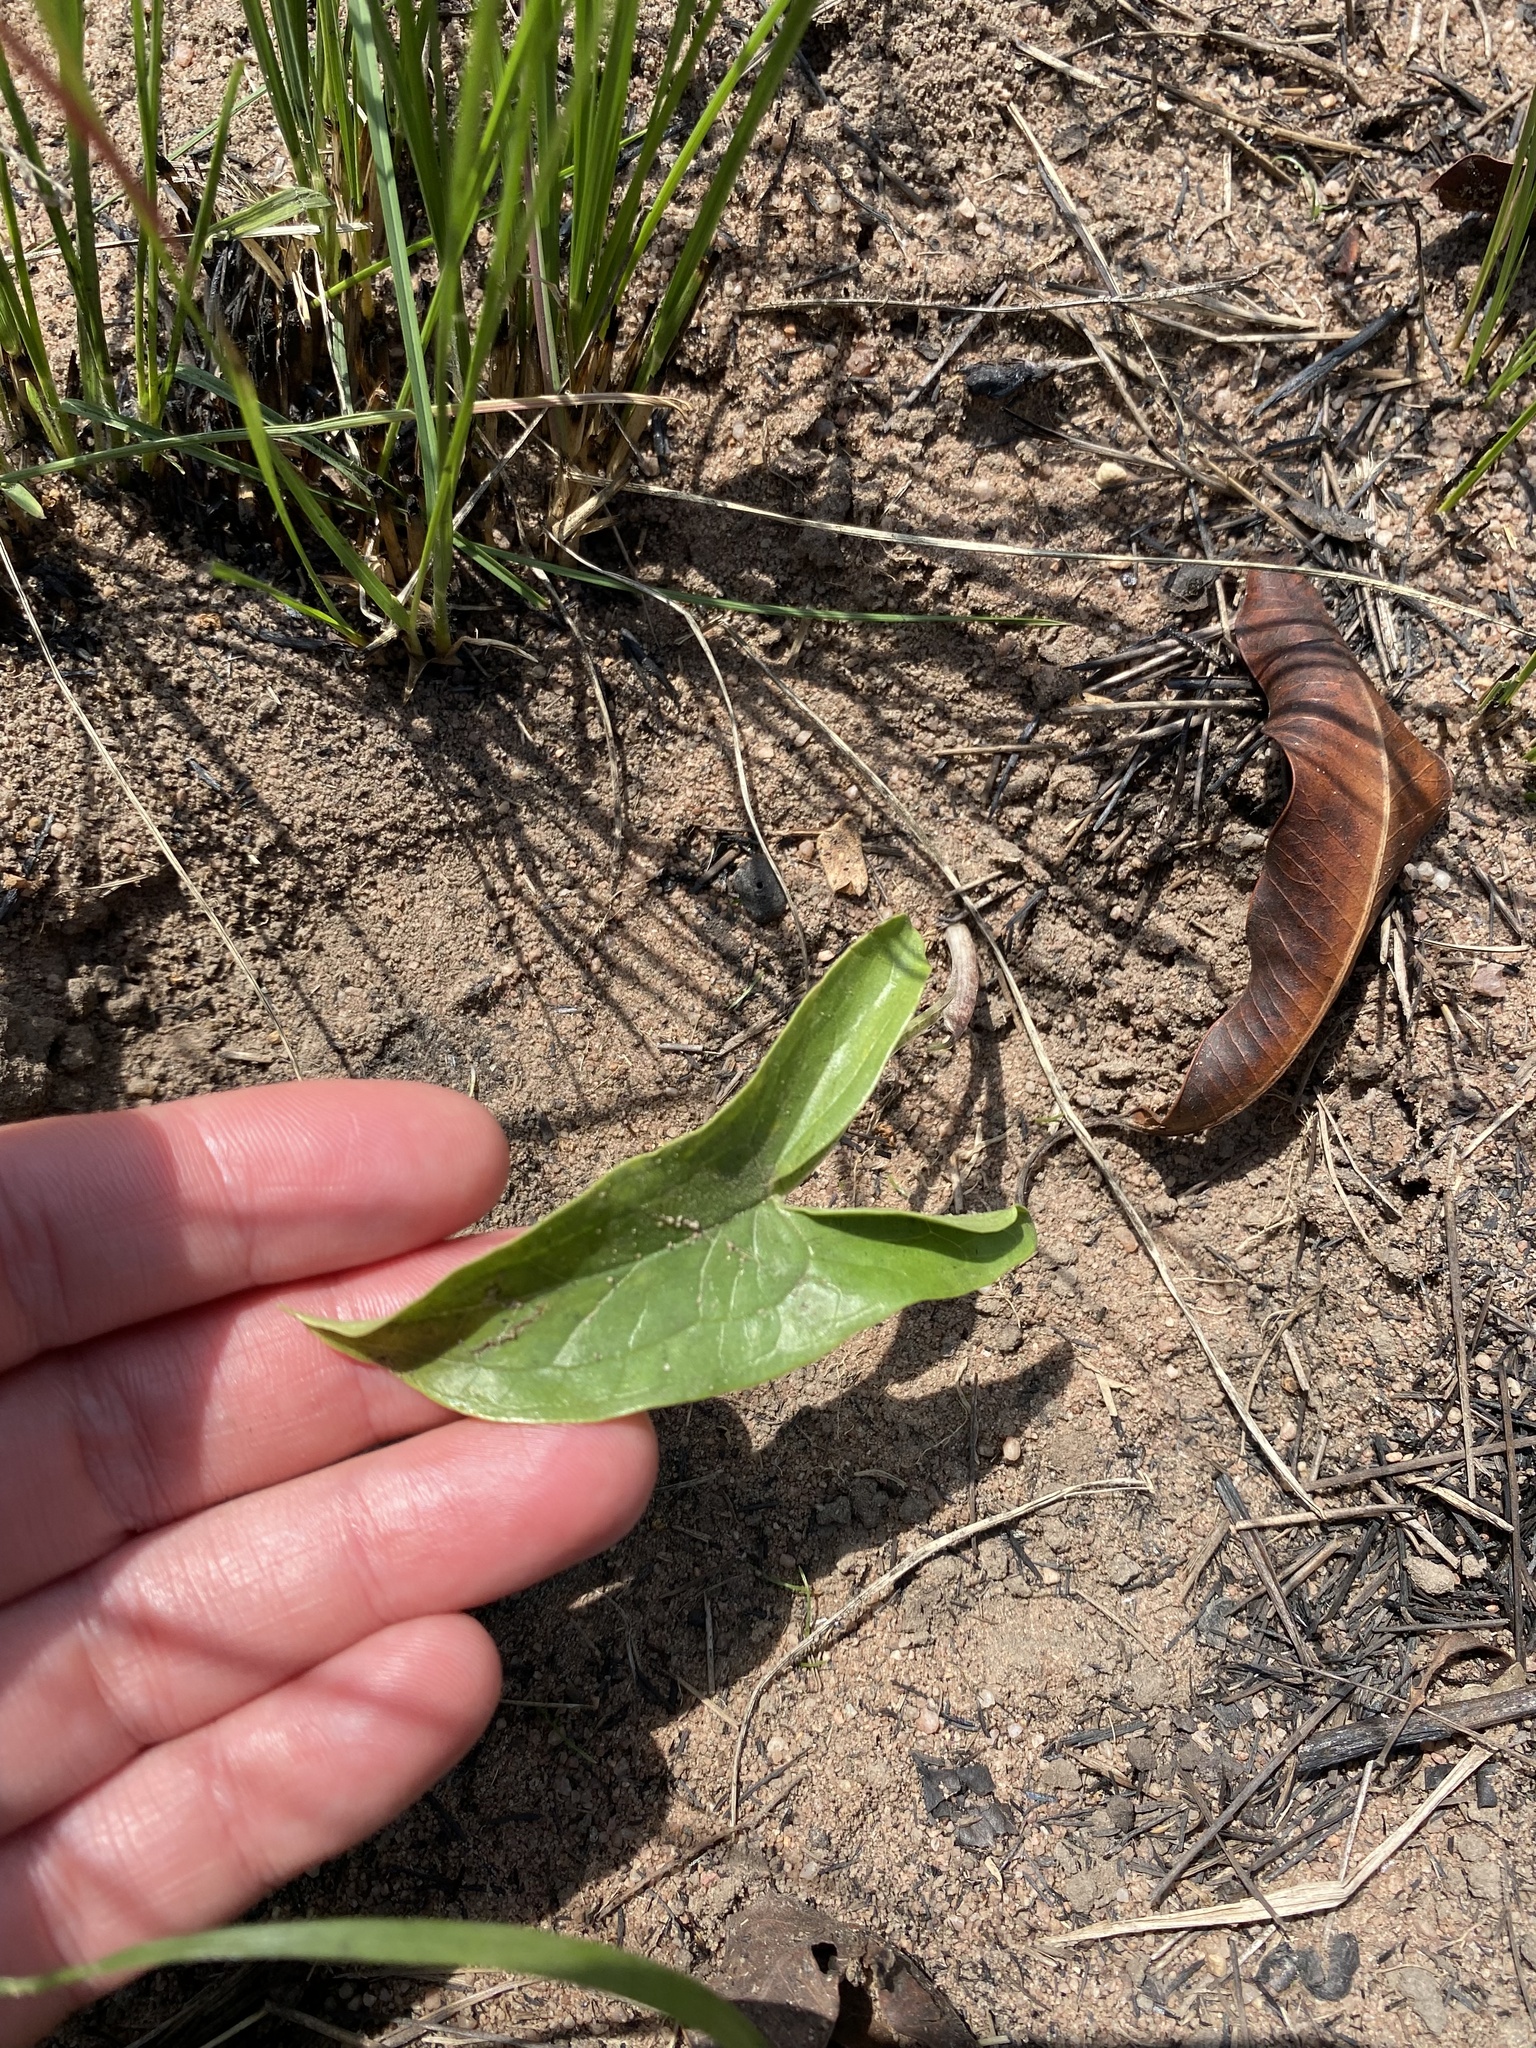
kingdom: Plantae
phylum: Tracheophyta
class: Liliopsida
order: Alismatales
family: Araceae
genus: Stylochaeton
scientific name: Stylochaeton natalensis
